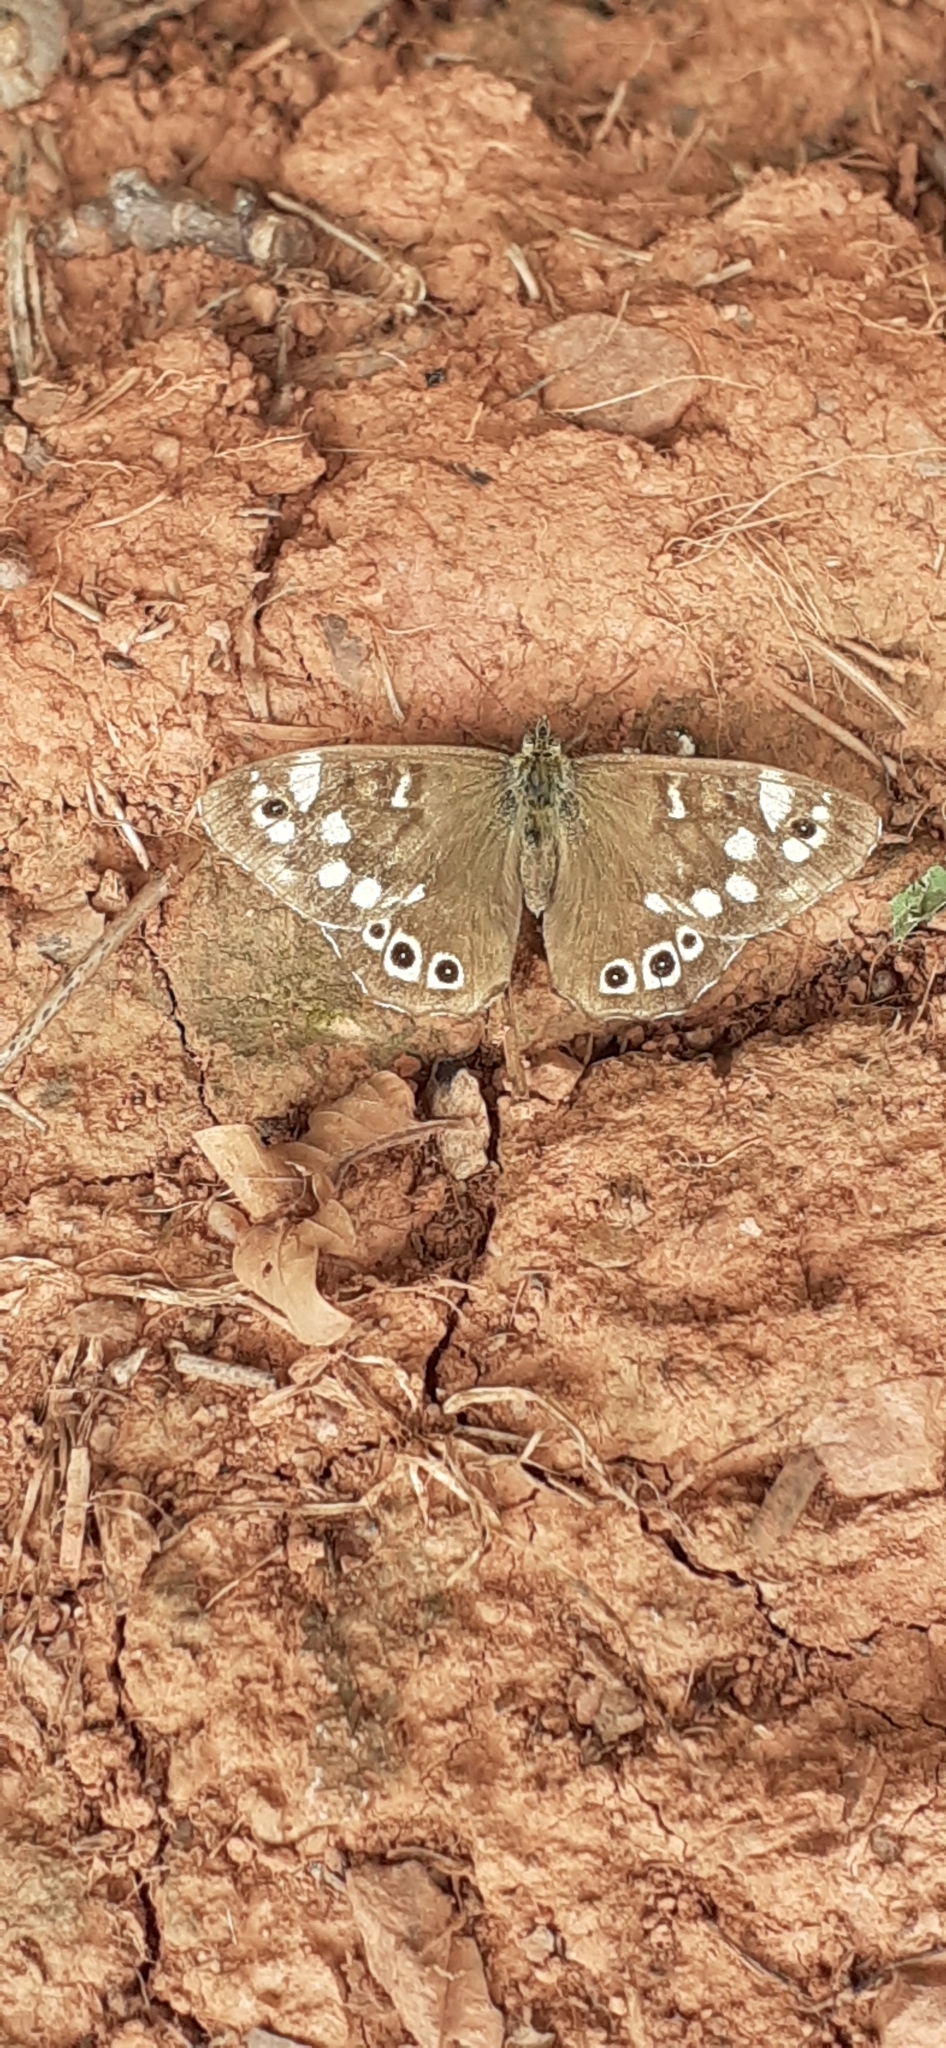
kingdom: Animalia
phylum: Arthropoda
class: Insecta
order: Lepidoptera
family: Nymphalidae
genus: Pararge
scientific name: Pararge aegeria
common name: Speckled wood
